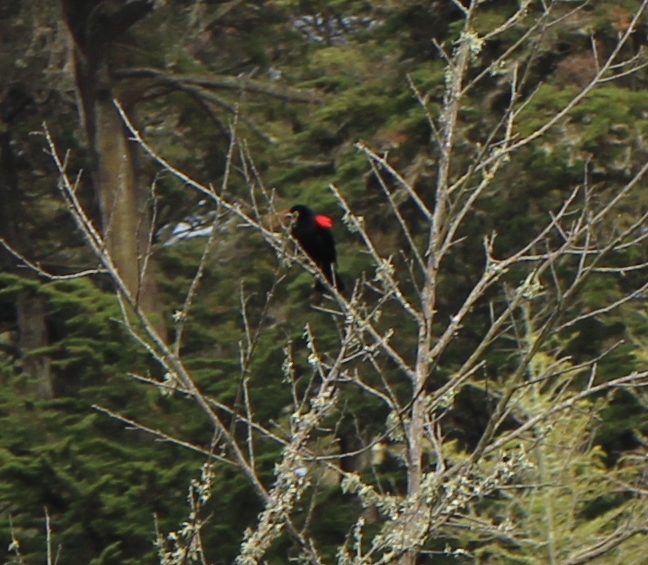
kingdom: Animalia
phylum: Chordata
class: Aves
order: Passeriformes
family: Icteridae
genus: Agelaius
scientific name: Agelaius phoeniceus
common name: Red-winged blackbird
